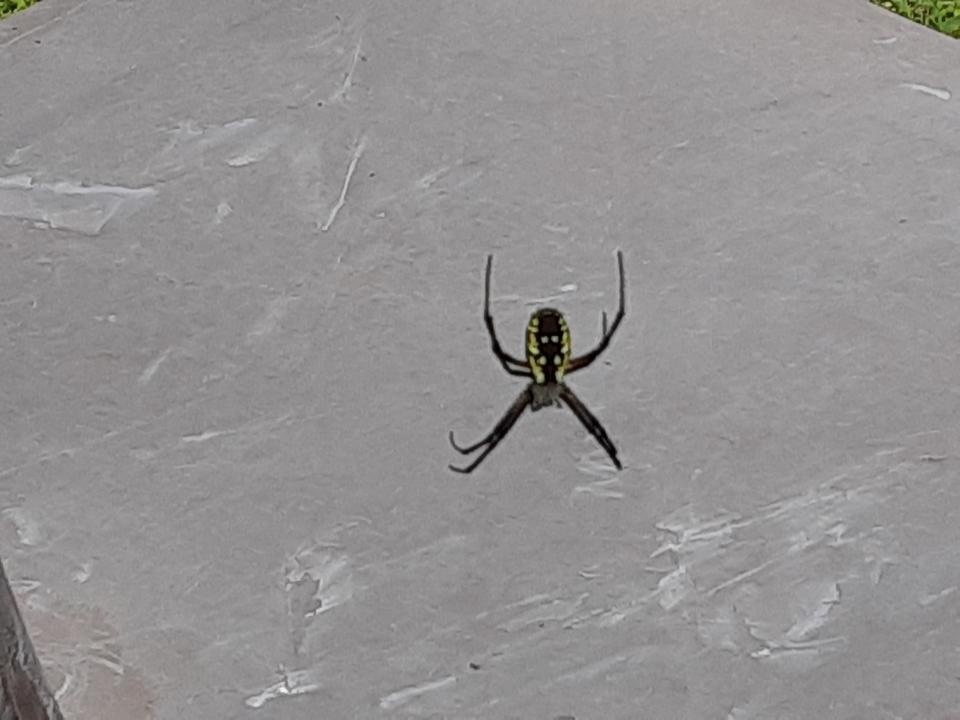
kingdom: Animalia
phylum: Arthropoda
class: Arachnida
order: Araneae
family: Araneidae
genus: Argiope
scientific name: Argiope aurantia
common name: Orb weavers
